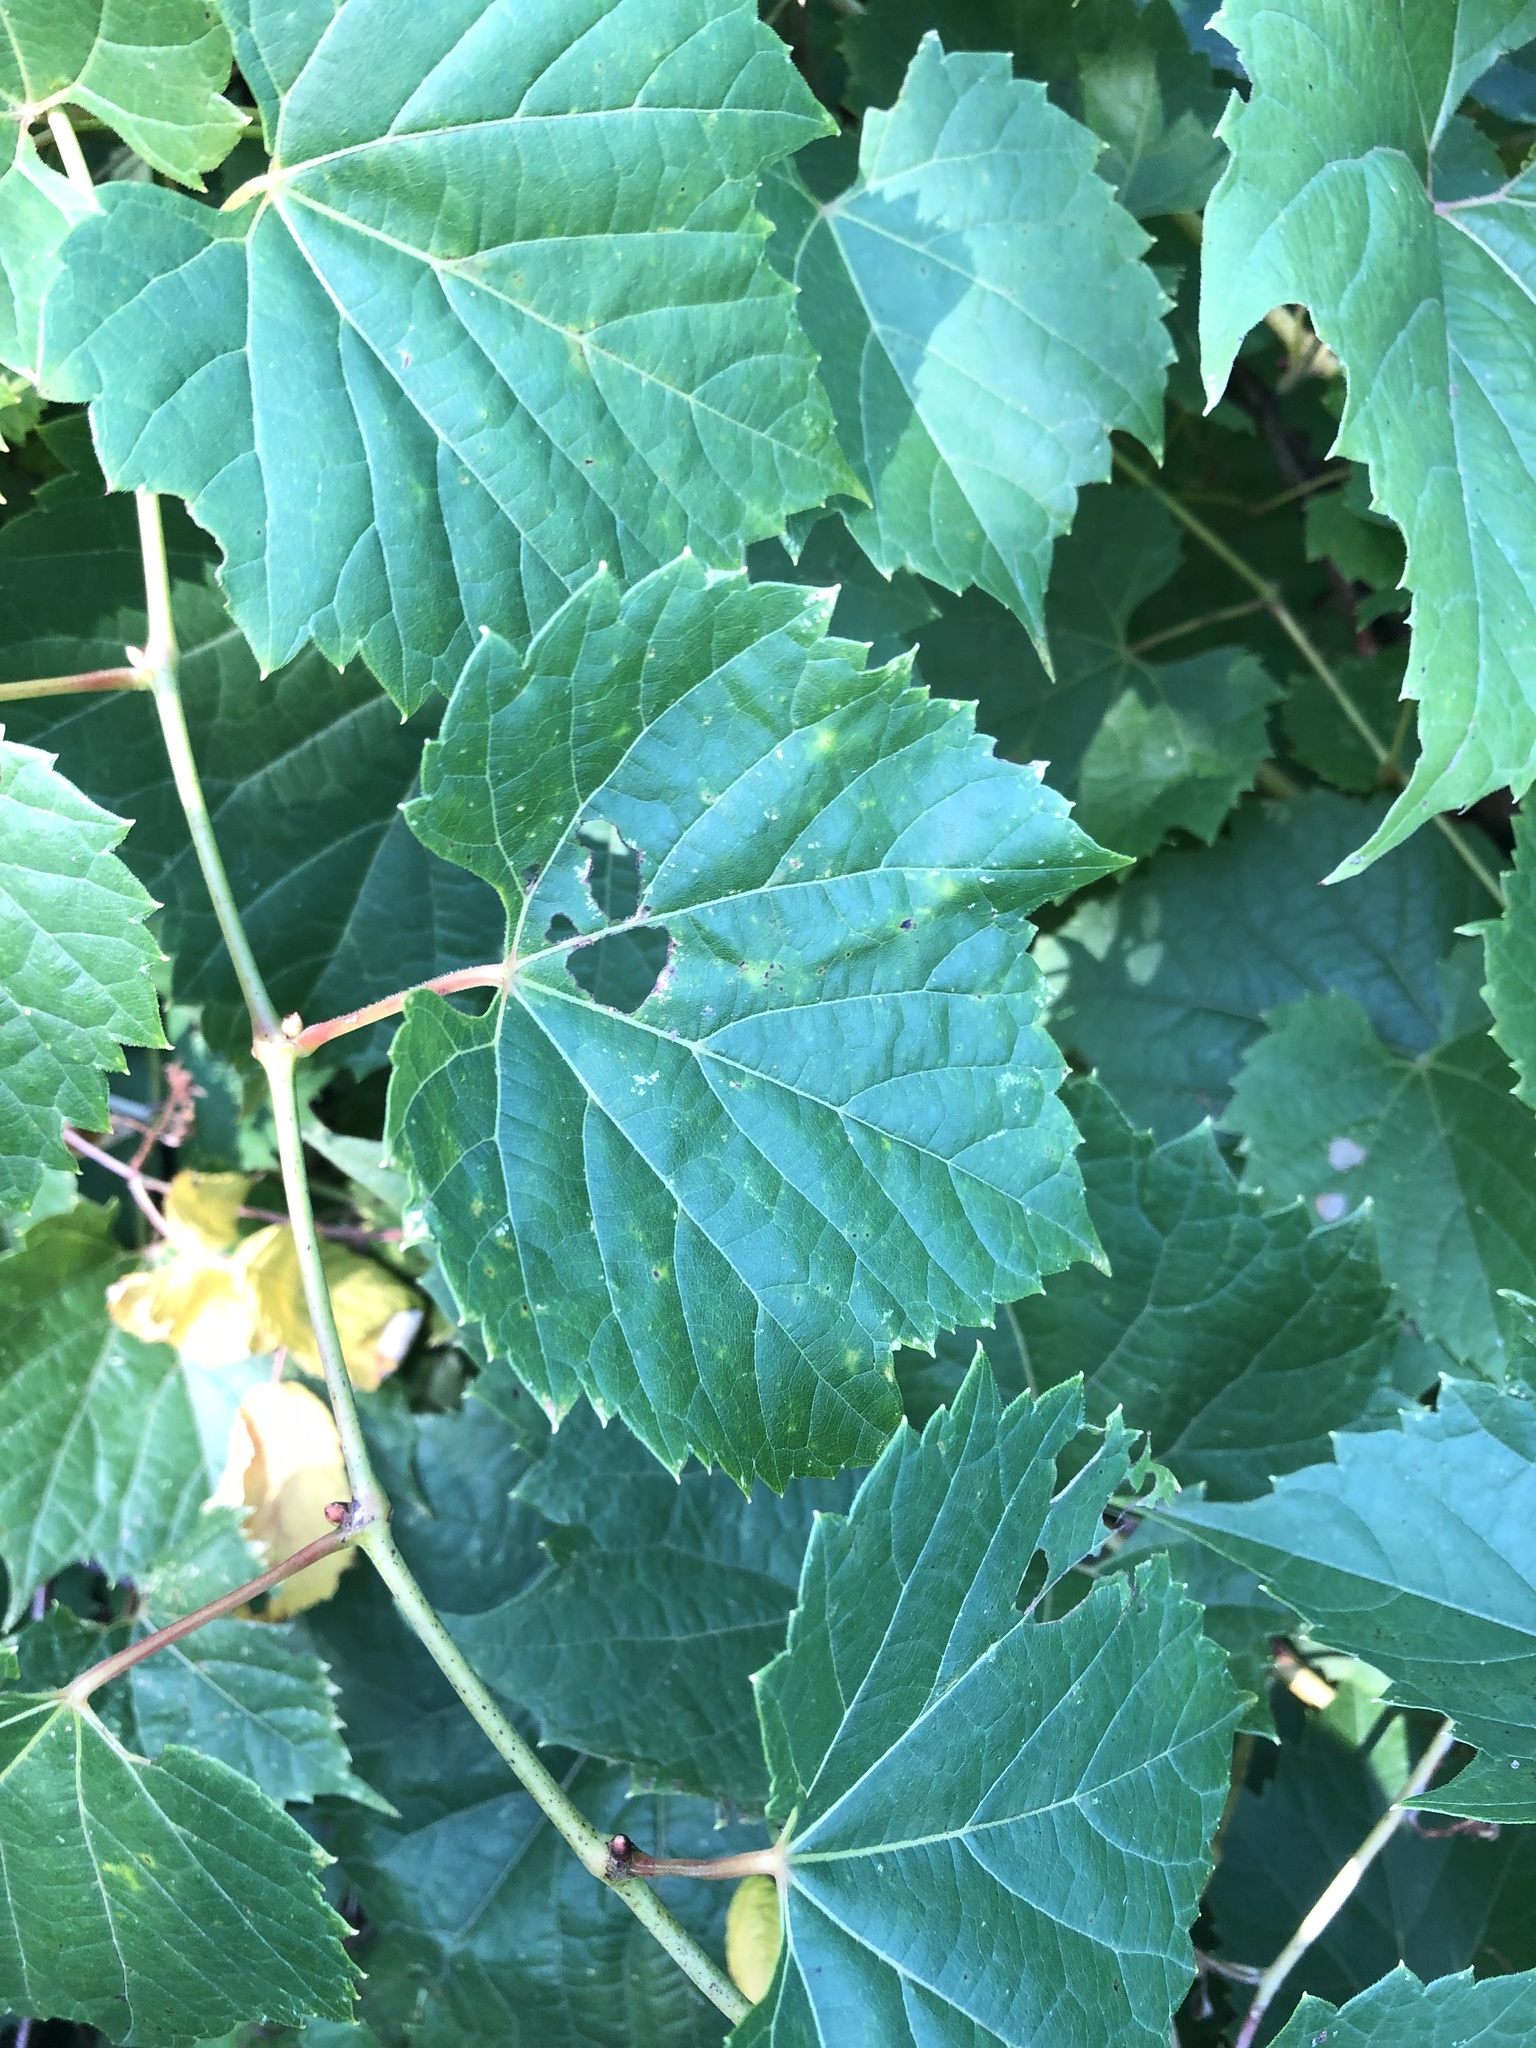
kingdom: Plantae
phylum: Tracheophyta
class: Magnoliopsida
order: Vitales
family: Vitaceae
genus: Vitis
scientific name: Vitis riparia
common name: Frost grape
